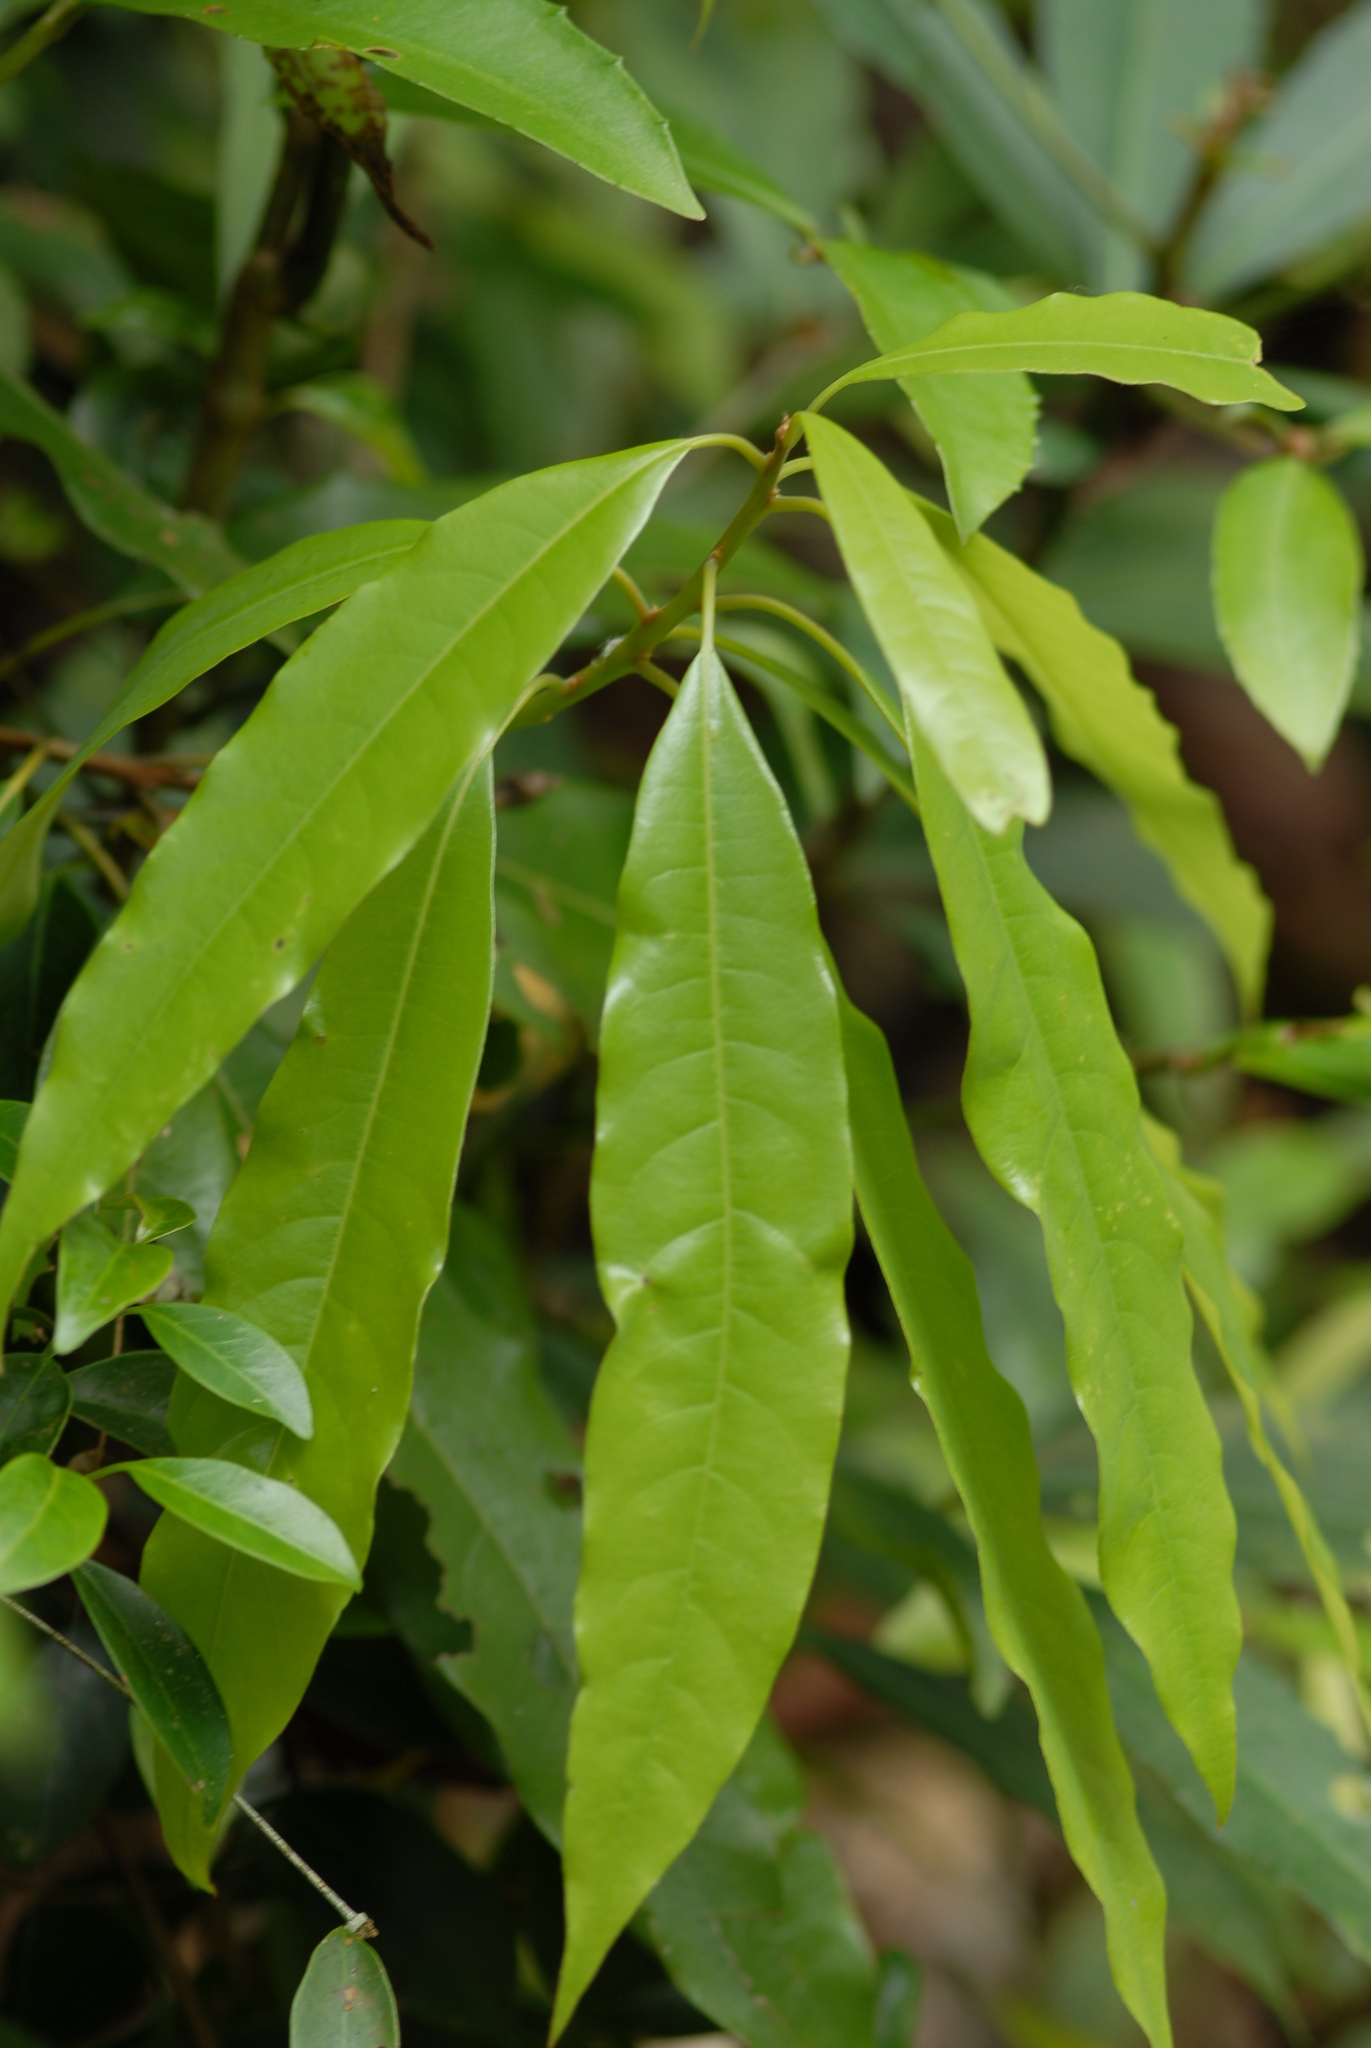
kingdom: Plantae
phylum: Tracheophyta
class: Magnoliopsida
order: Laurales
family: Lauraceae
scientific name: Lauraceae
